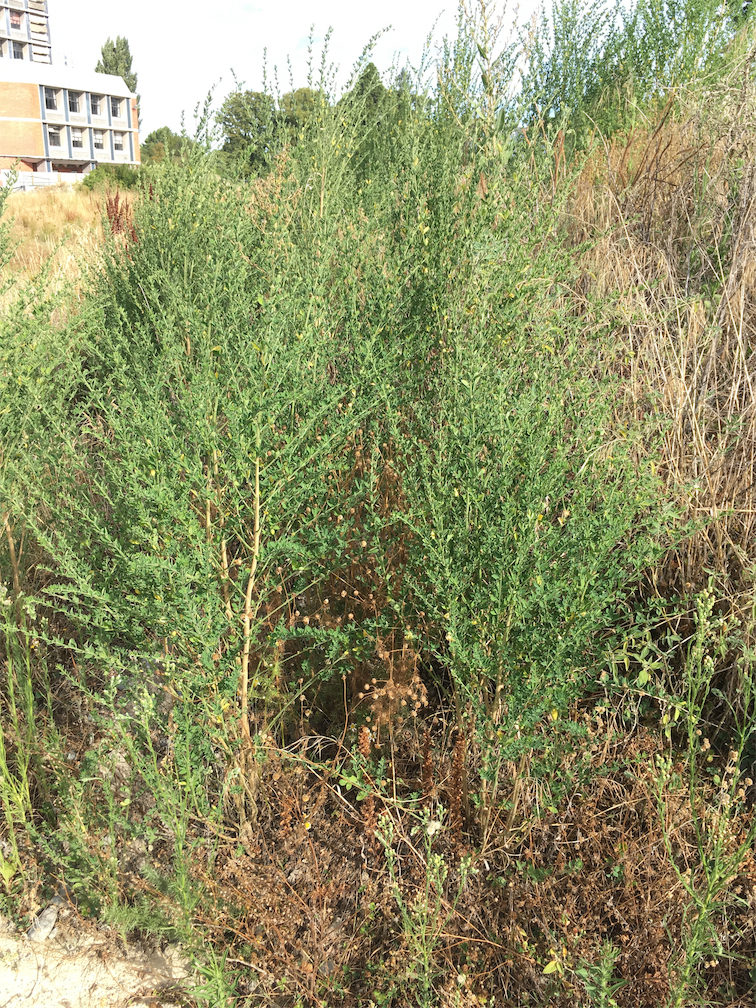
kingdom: Plantae
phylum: Tracheophyta
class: Magnoliopsida
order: Fabales
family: Fabaceae
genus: Cytisus
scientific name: Cytisus scoparius
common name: Scotch broom
